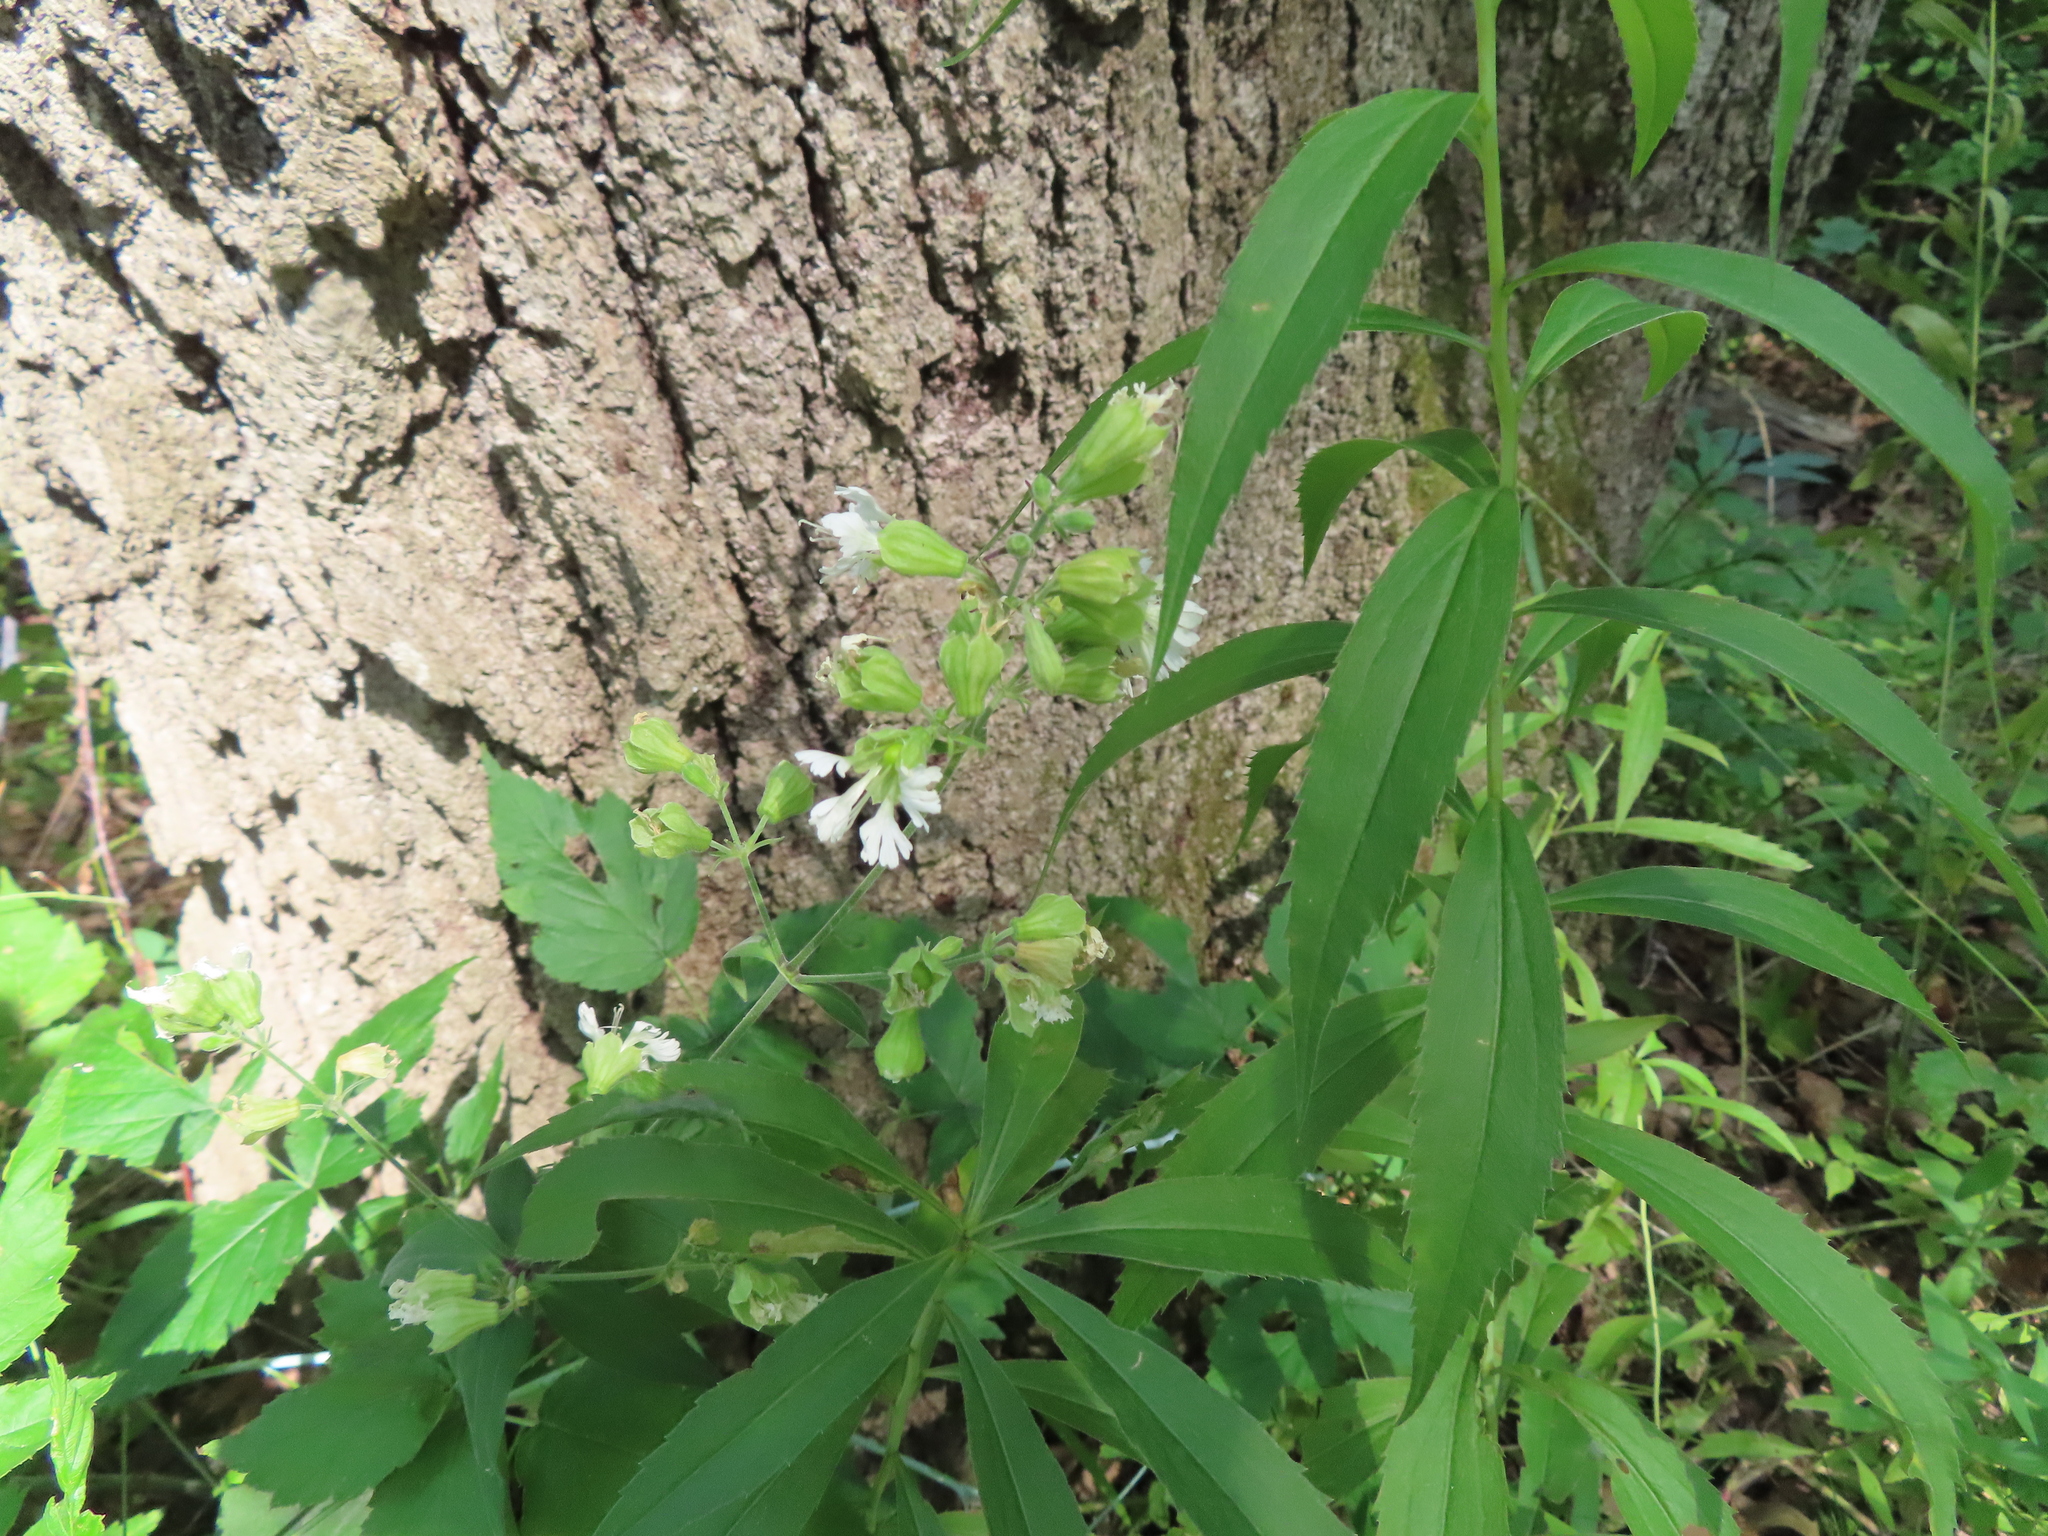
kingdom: Plantae
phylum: Tracheophyta
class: Magnoliopsida
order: Caryophyllales
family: Caryophyllaceae
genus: Silene
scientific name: Silene stellata
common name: Starry campion
